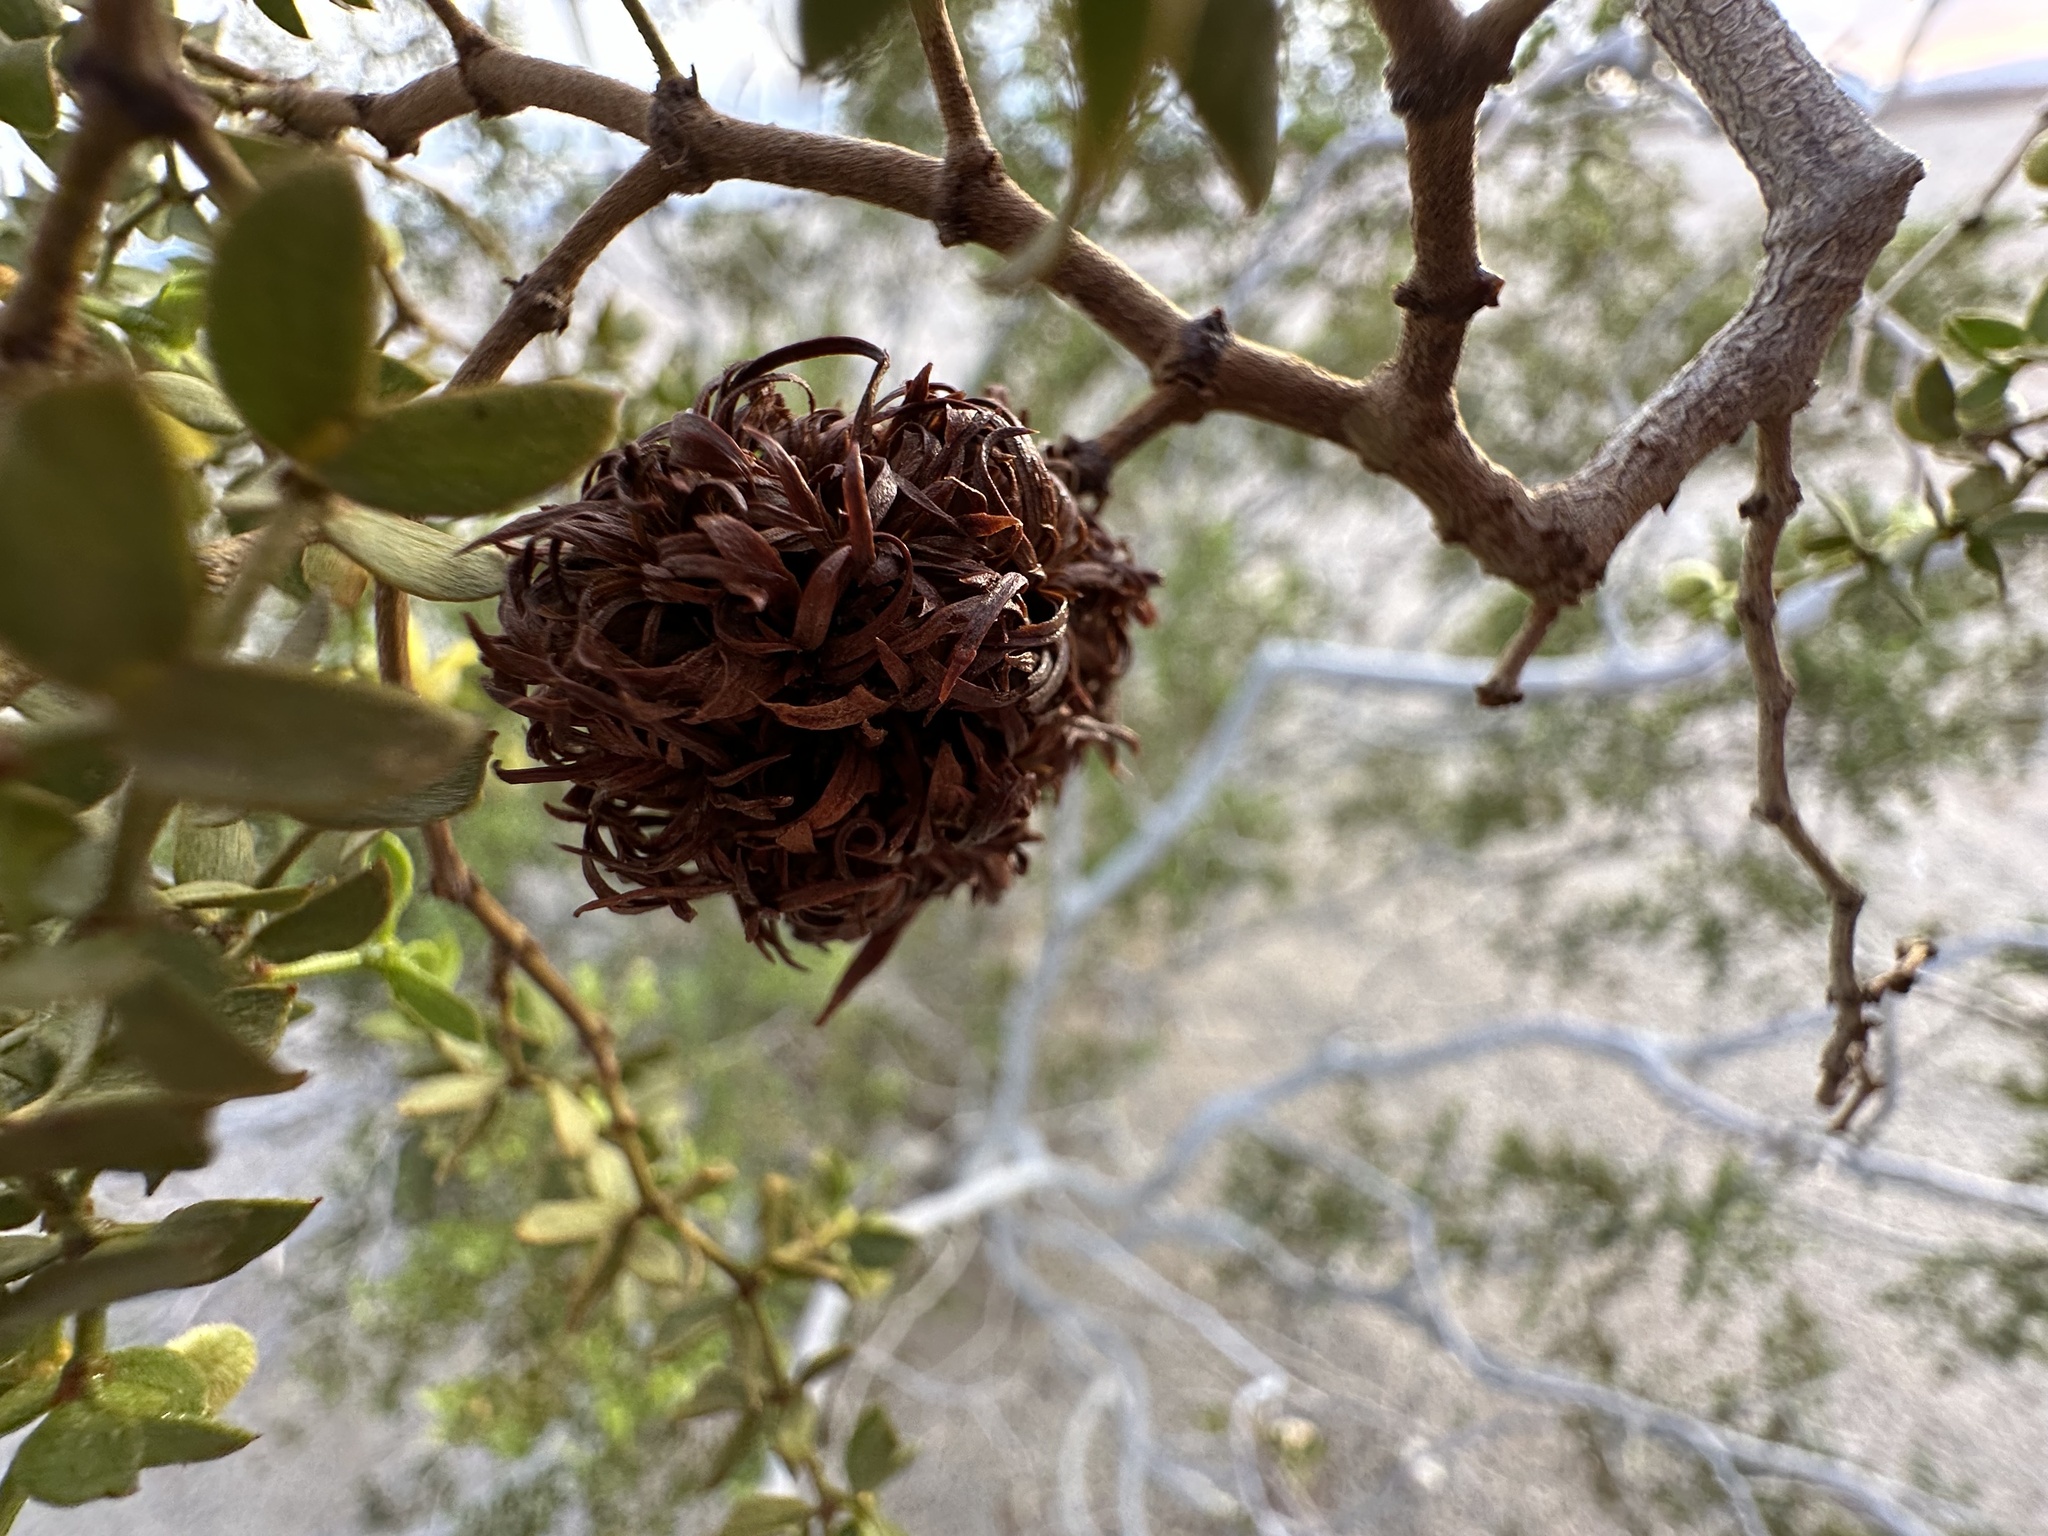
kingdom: Animalia
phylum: Arthropoda
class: Insecta
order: Diptera
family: Cecidomyiidae
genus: Asphondylia
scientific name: Asphondylia auripila
